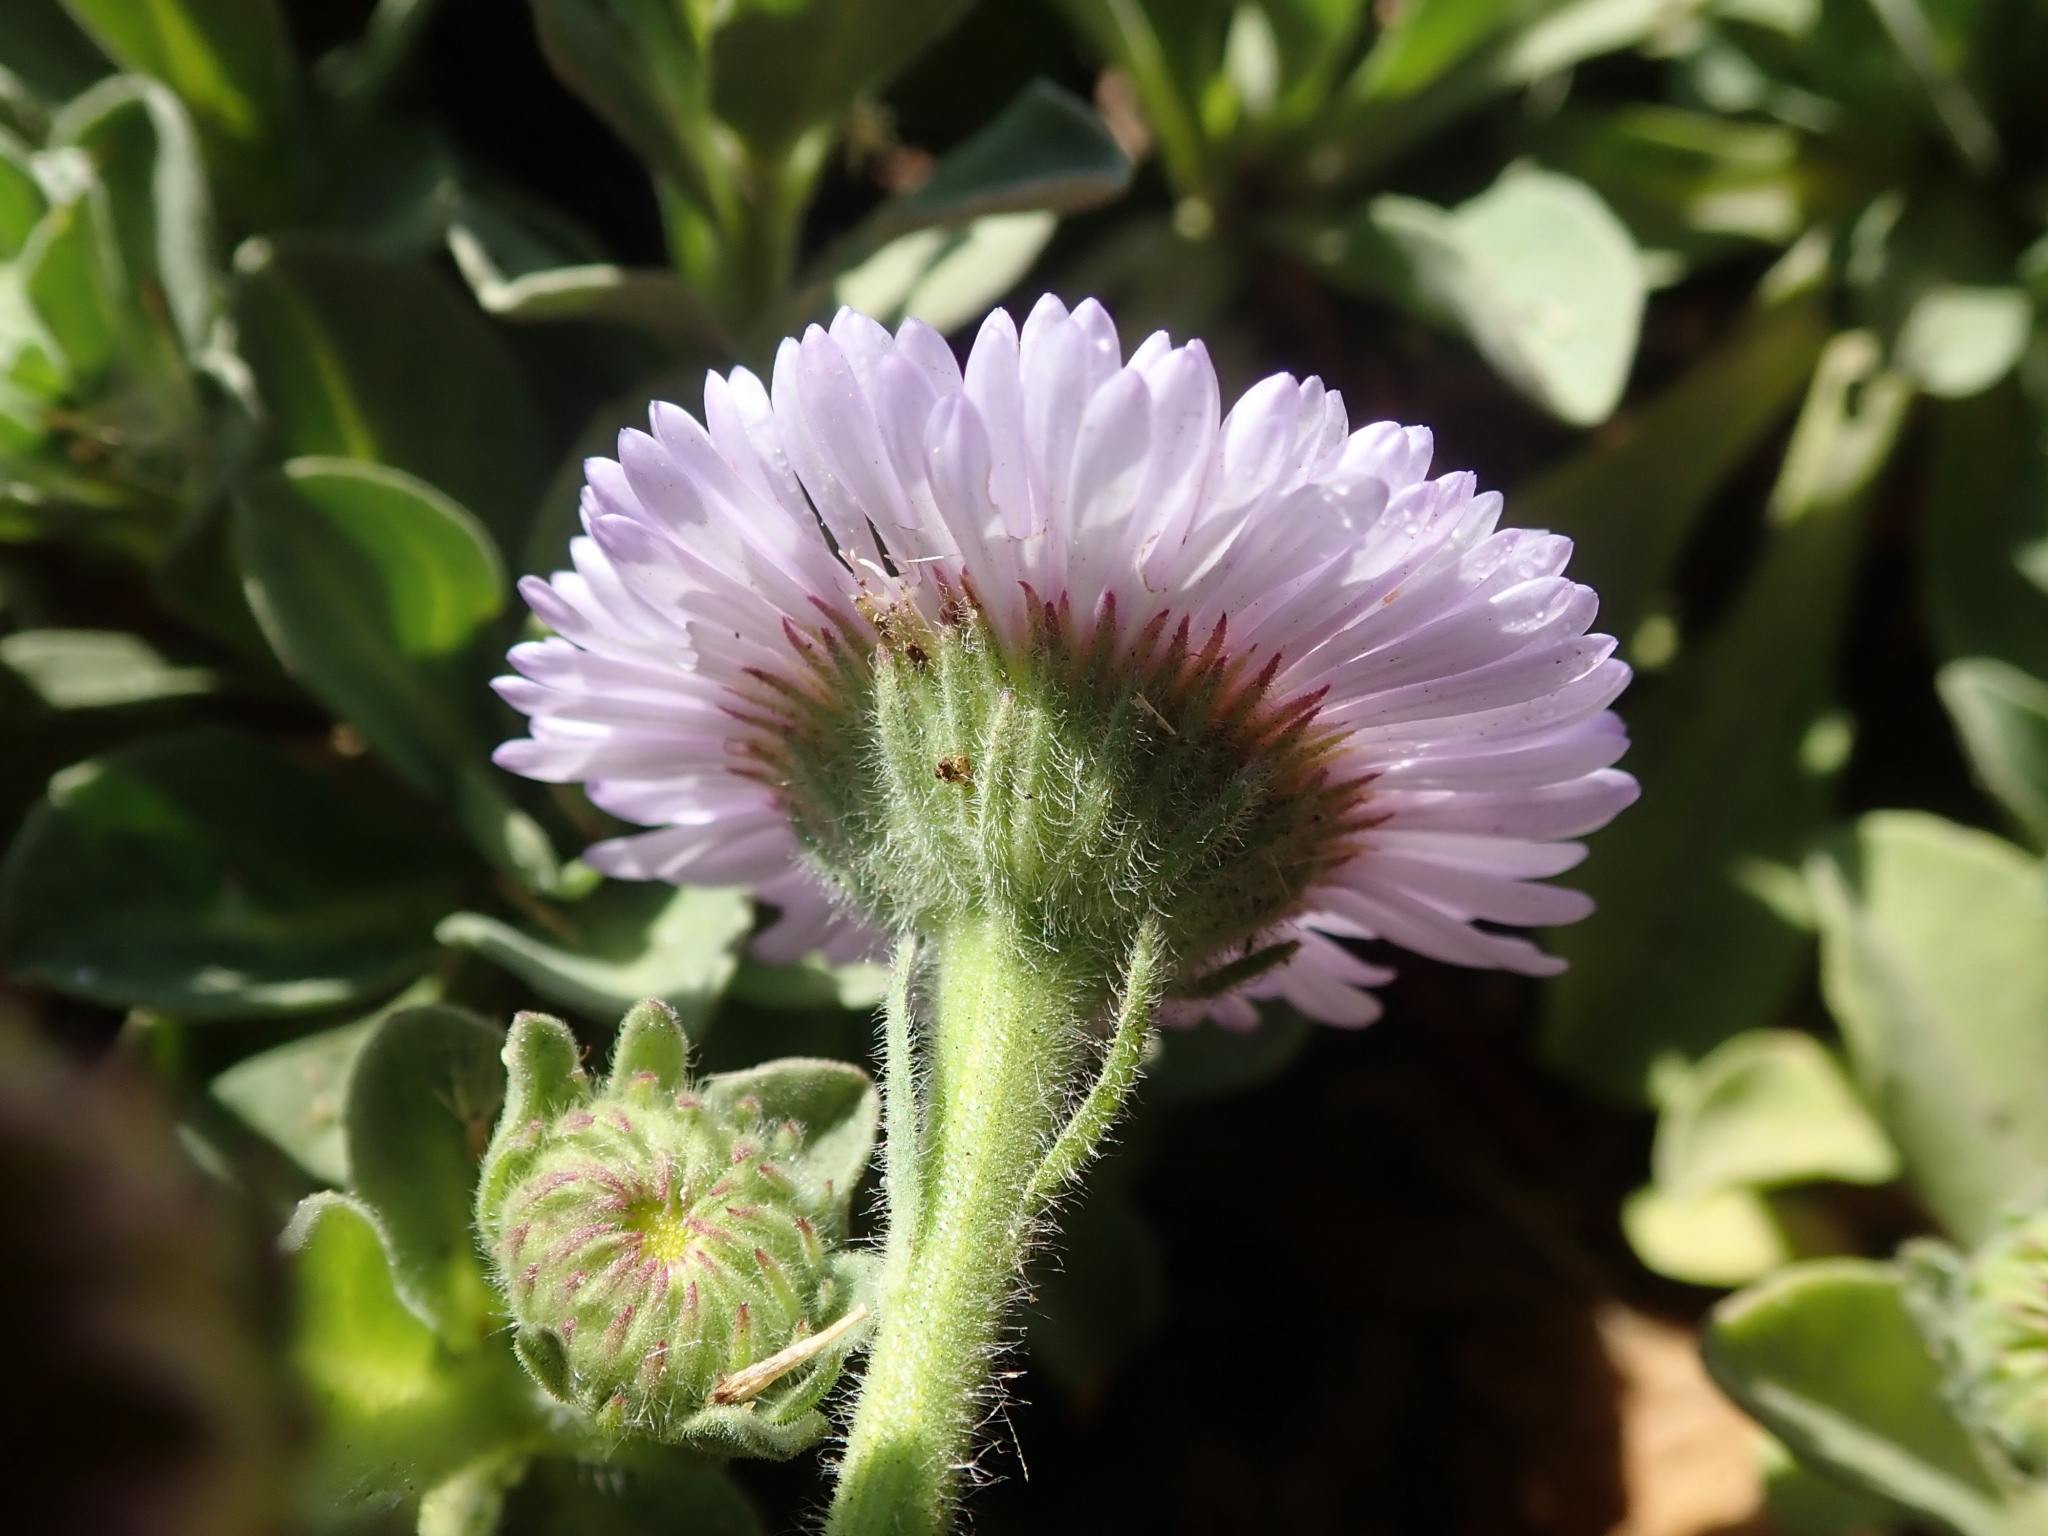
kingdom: Plantae
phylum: Tracheophyta
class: Magnoliopsida
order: Asterales
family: Asteraceae
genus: Erigeron
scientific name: Erigeron glaucus
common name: Seaside daisy
